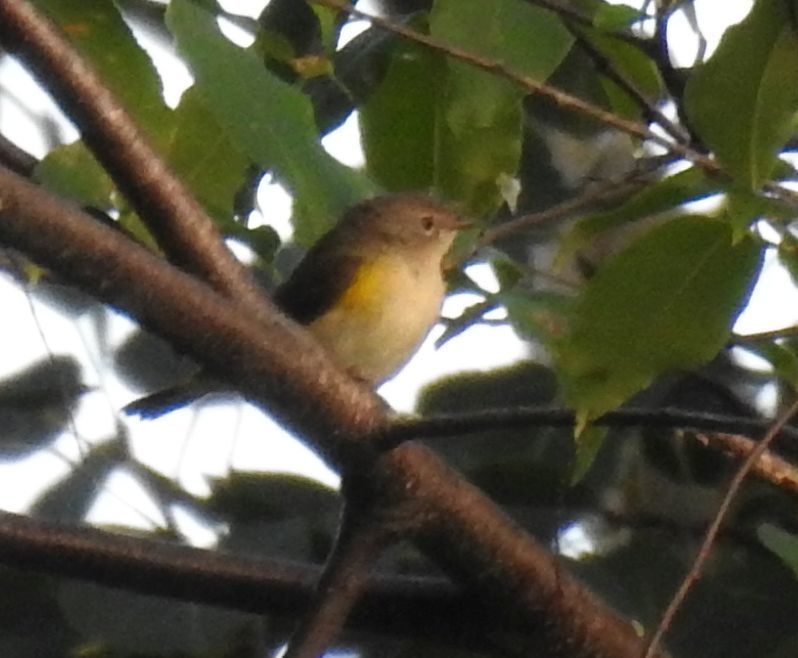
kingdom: Animalia
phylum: Chordata
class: Aves
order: Passeriformes
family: Parulidae
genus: Setophaga
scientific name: Setophaga ruticilla
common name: American redstart
